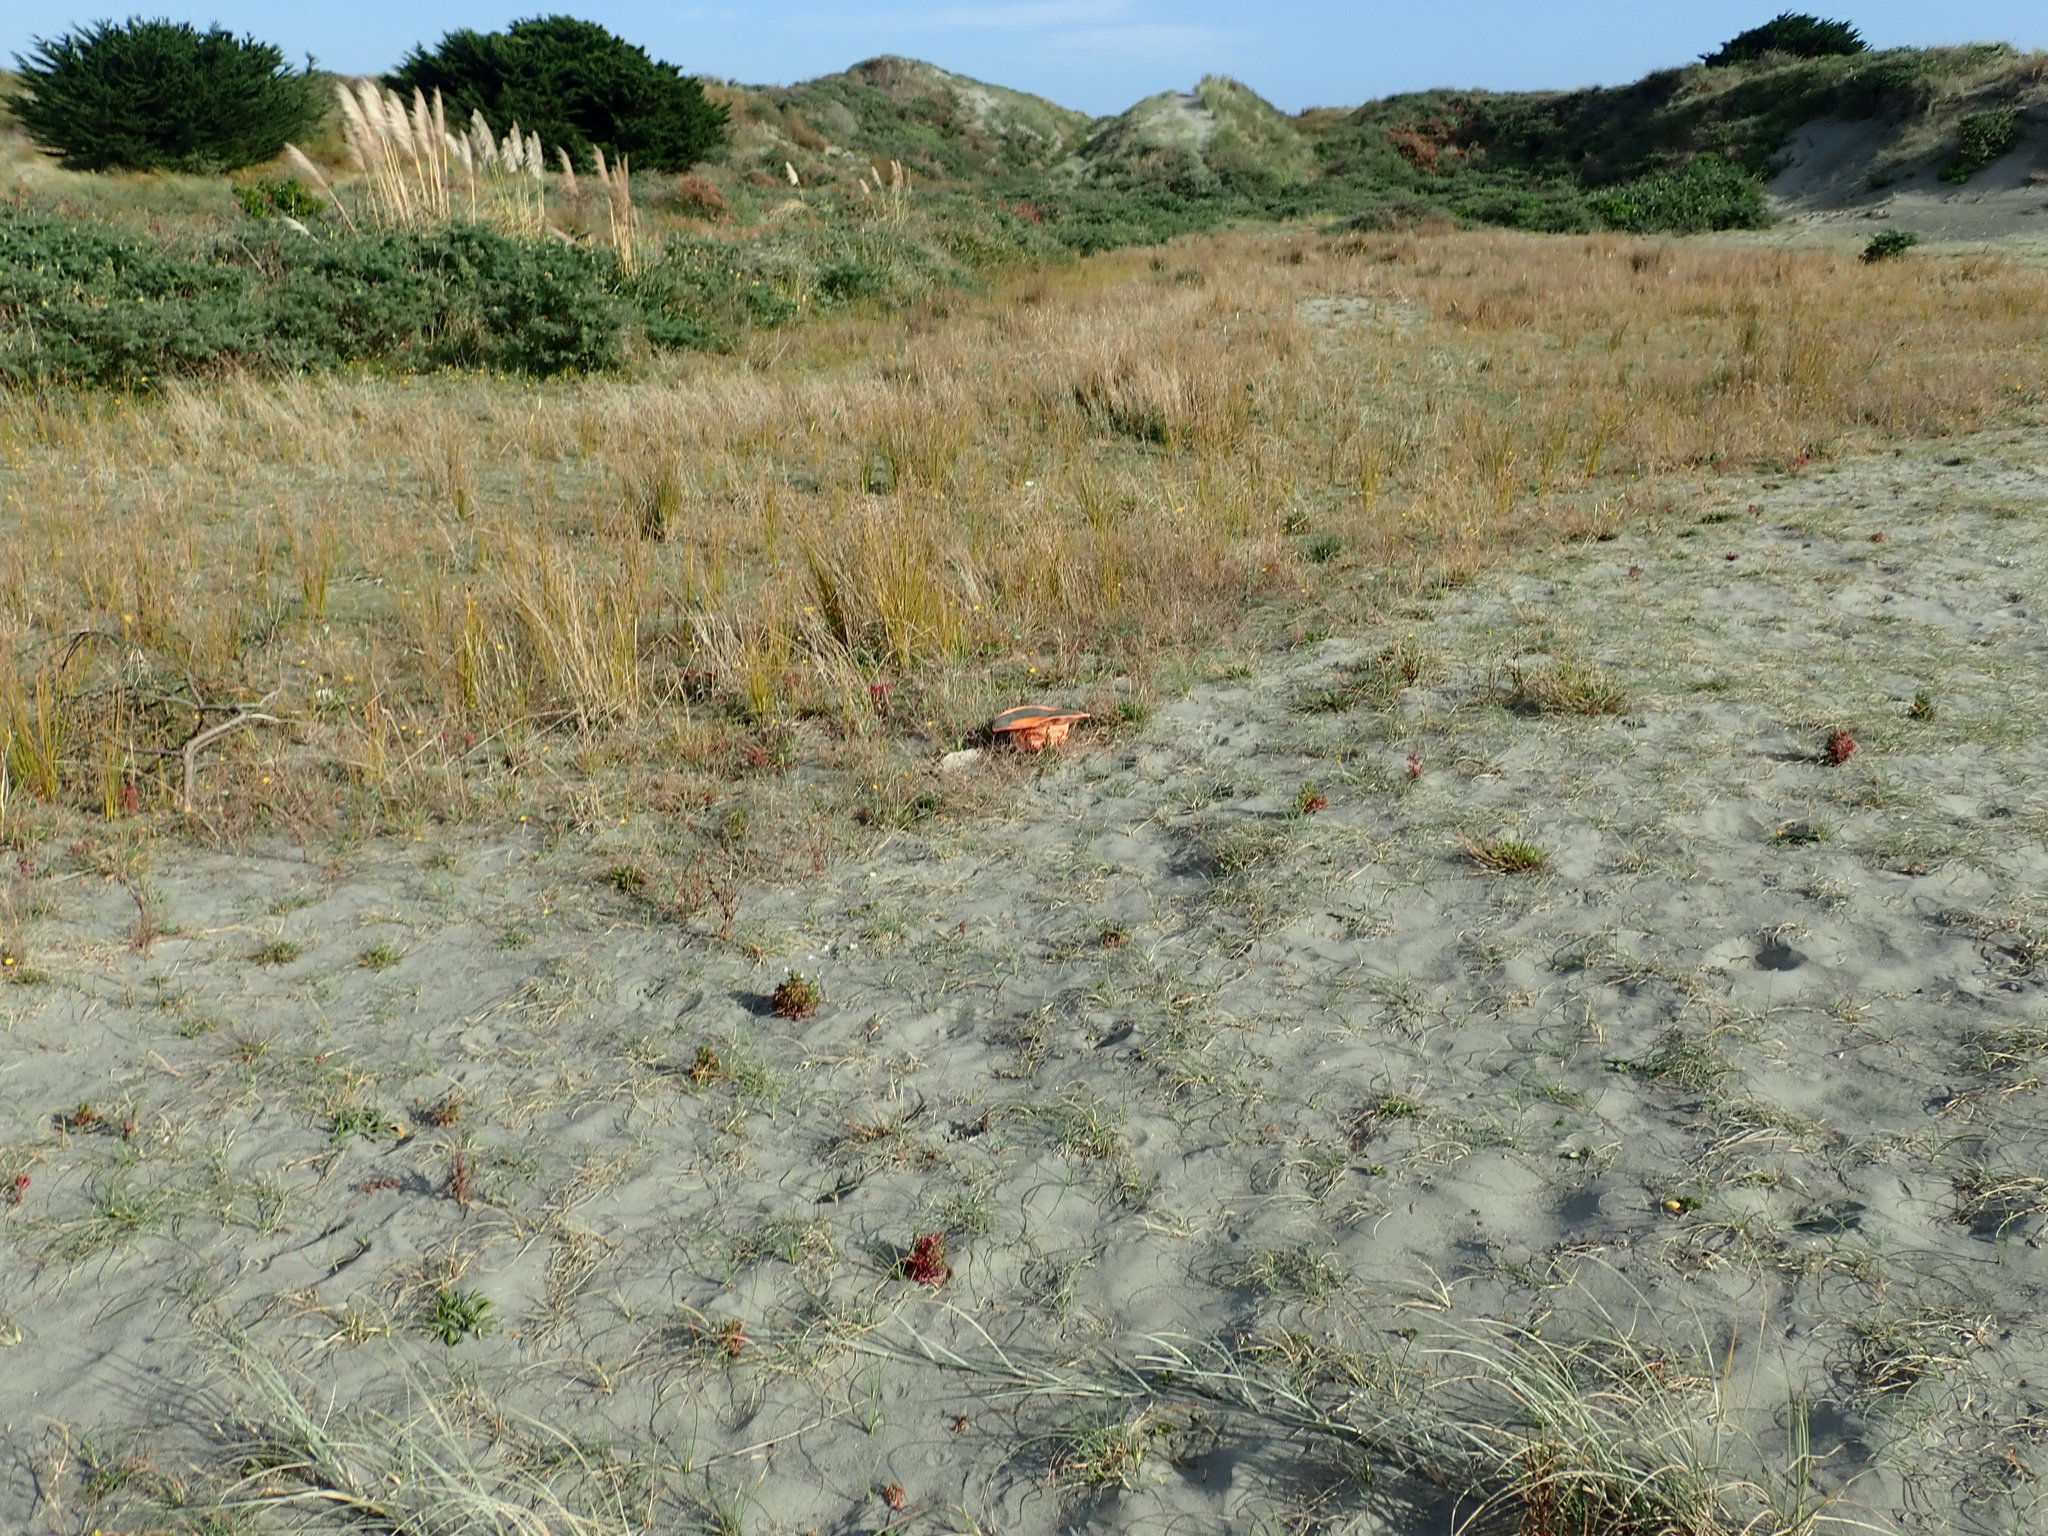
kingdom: Animalia
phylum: Arthropoda
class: Arachnida
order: Araneae
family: Theridiidae
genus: Latrodectus
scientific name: Latrodectus katipo
